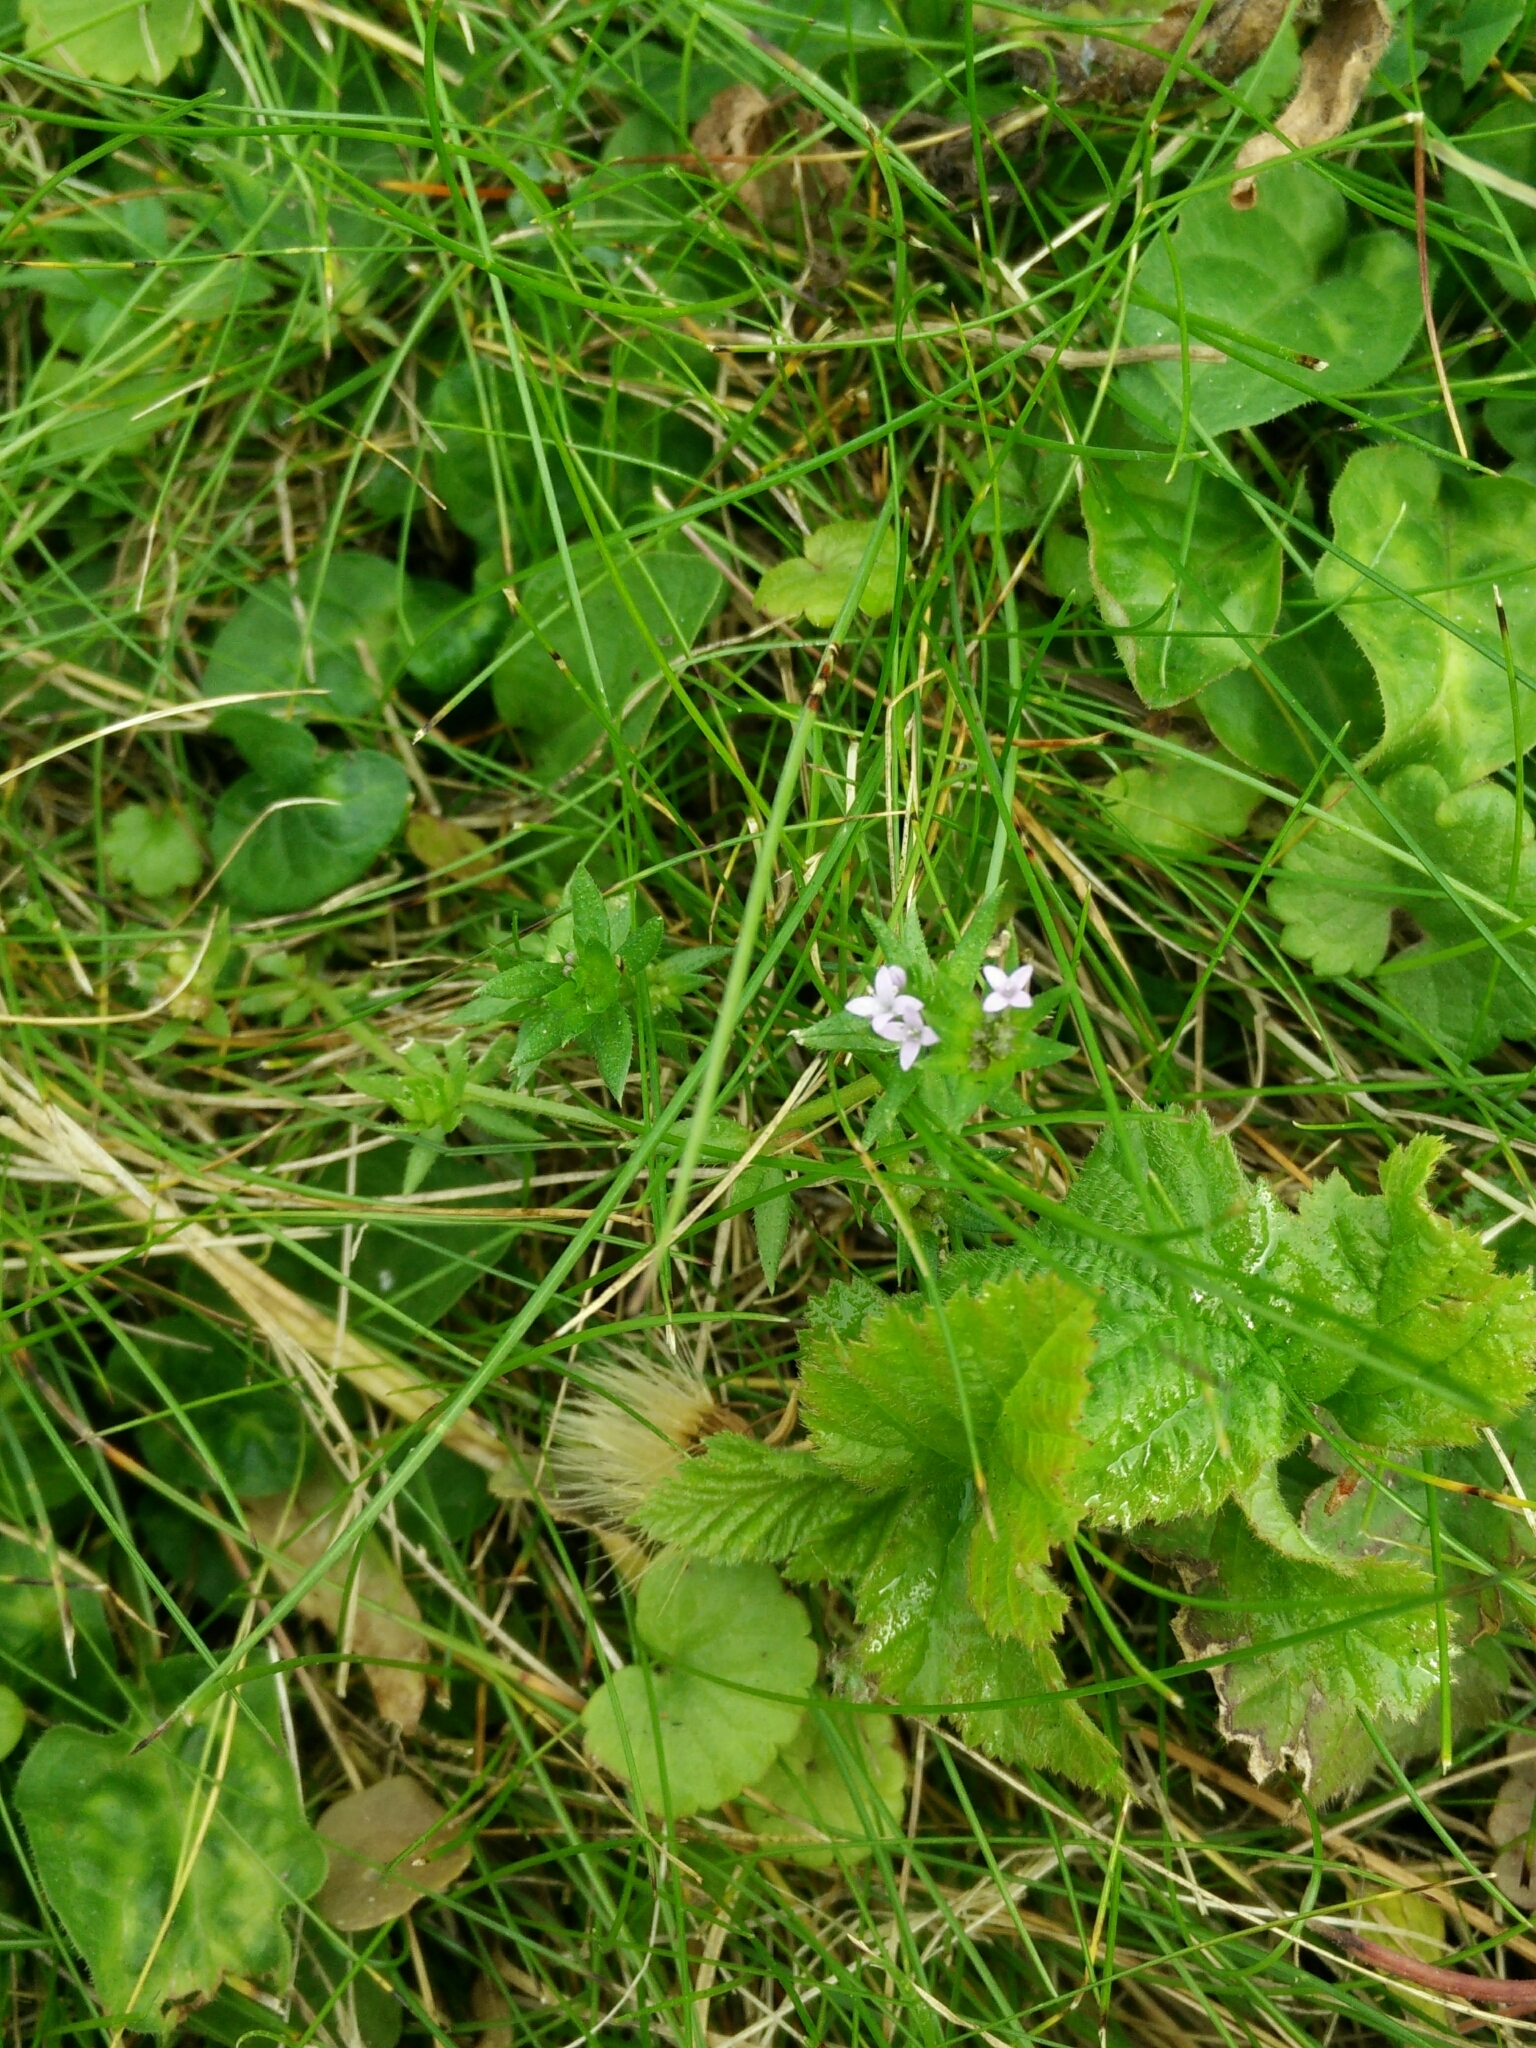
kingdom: Plantae
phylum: Tracheophyta
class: Magnoliopsida
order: Gentianales
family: Rubiaceae
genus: Sherardia
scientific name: Sherardia arvensis
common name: Field madder
